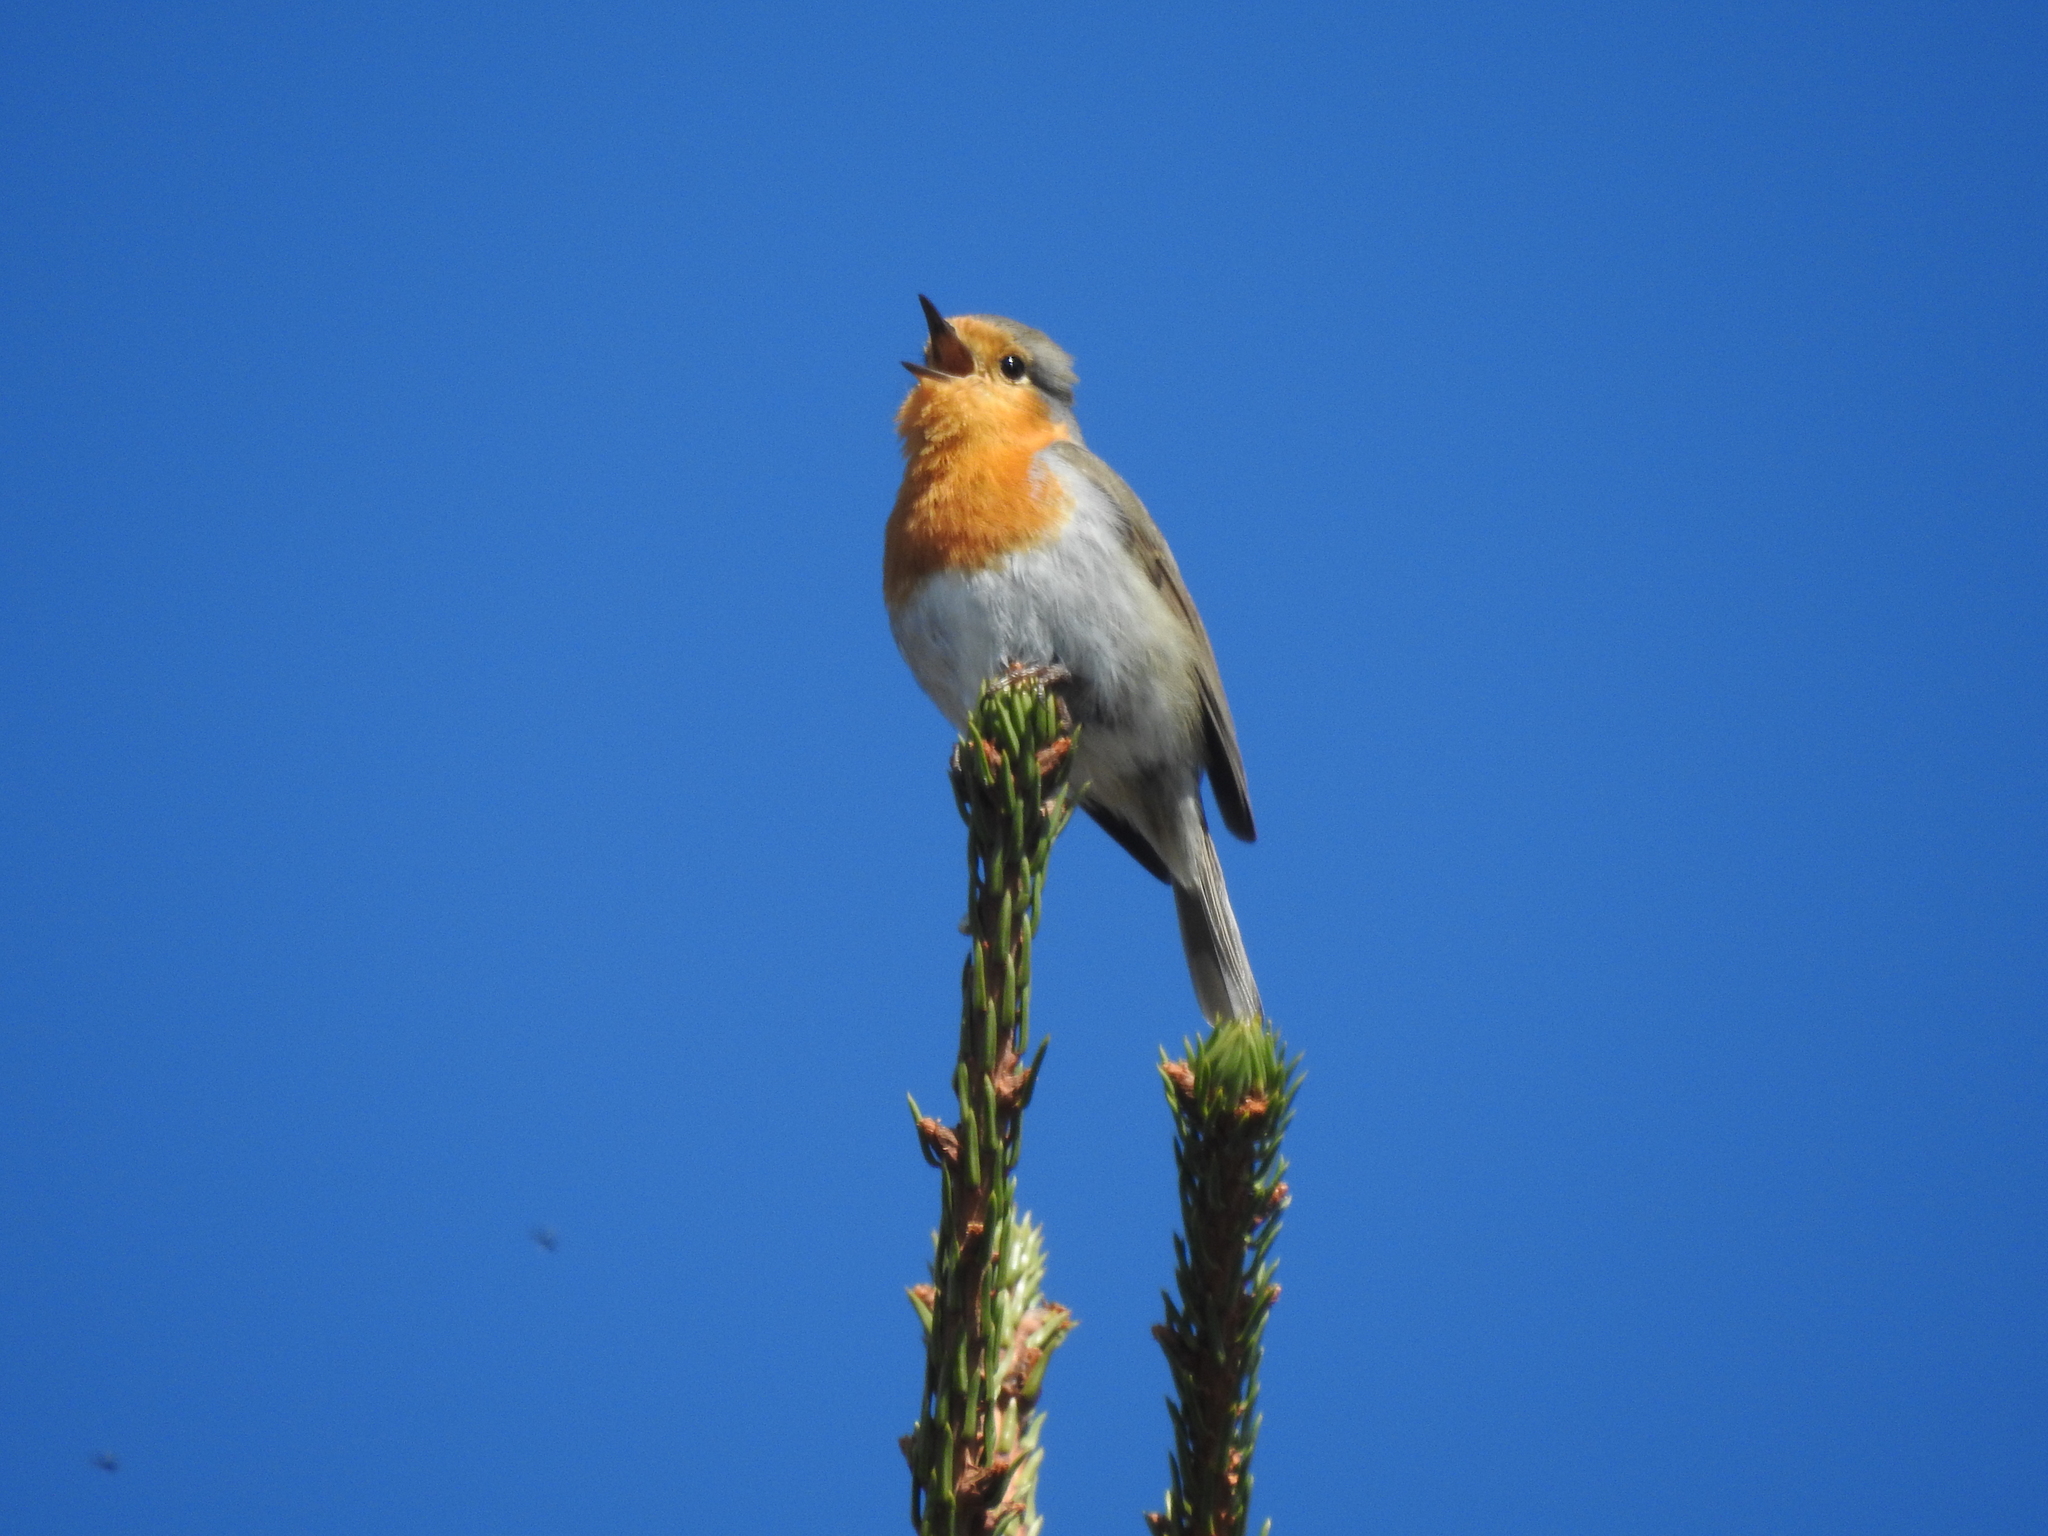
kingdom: Animalia
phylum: Chordata
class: Aves
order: Passeriformes
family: Muscicapidae
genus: Erithacus
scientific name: Erithacus rubecula
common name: European robin
